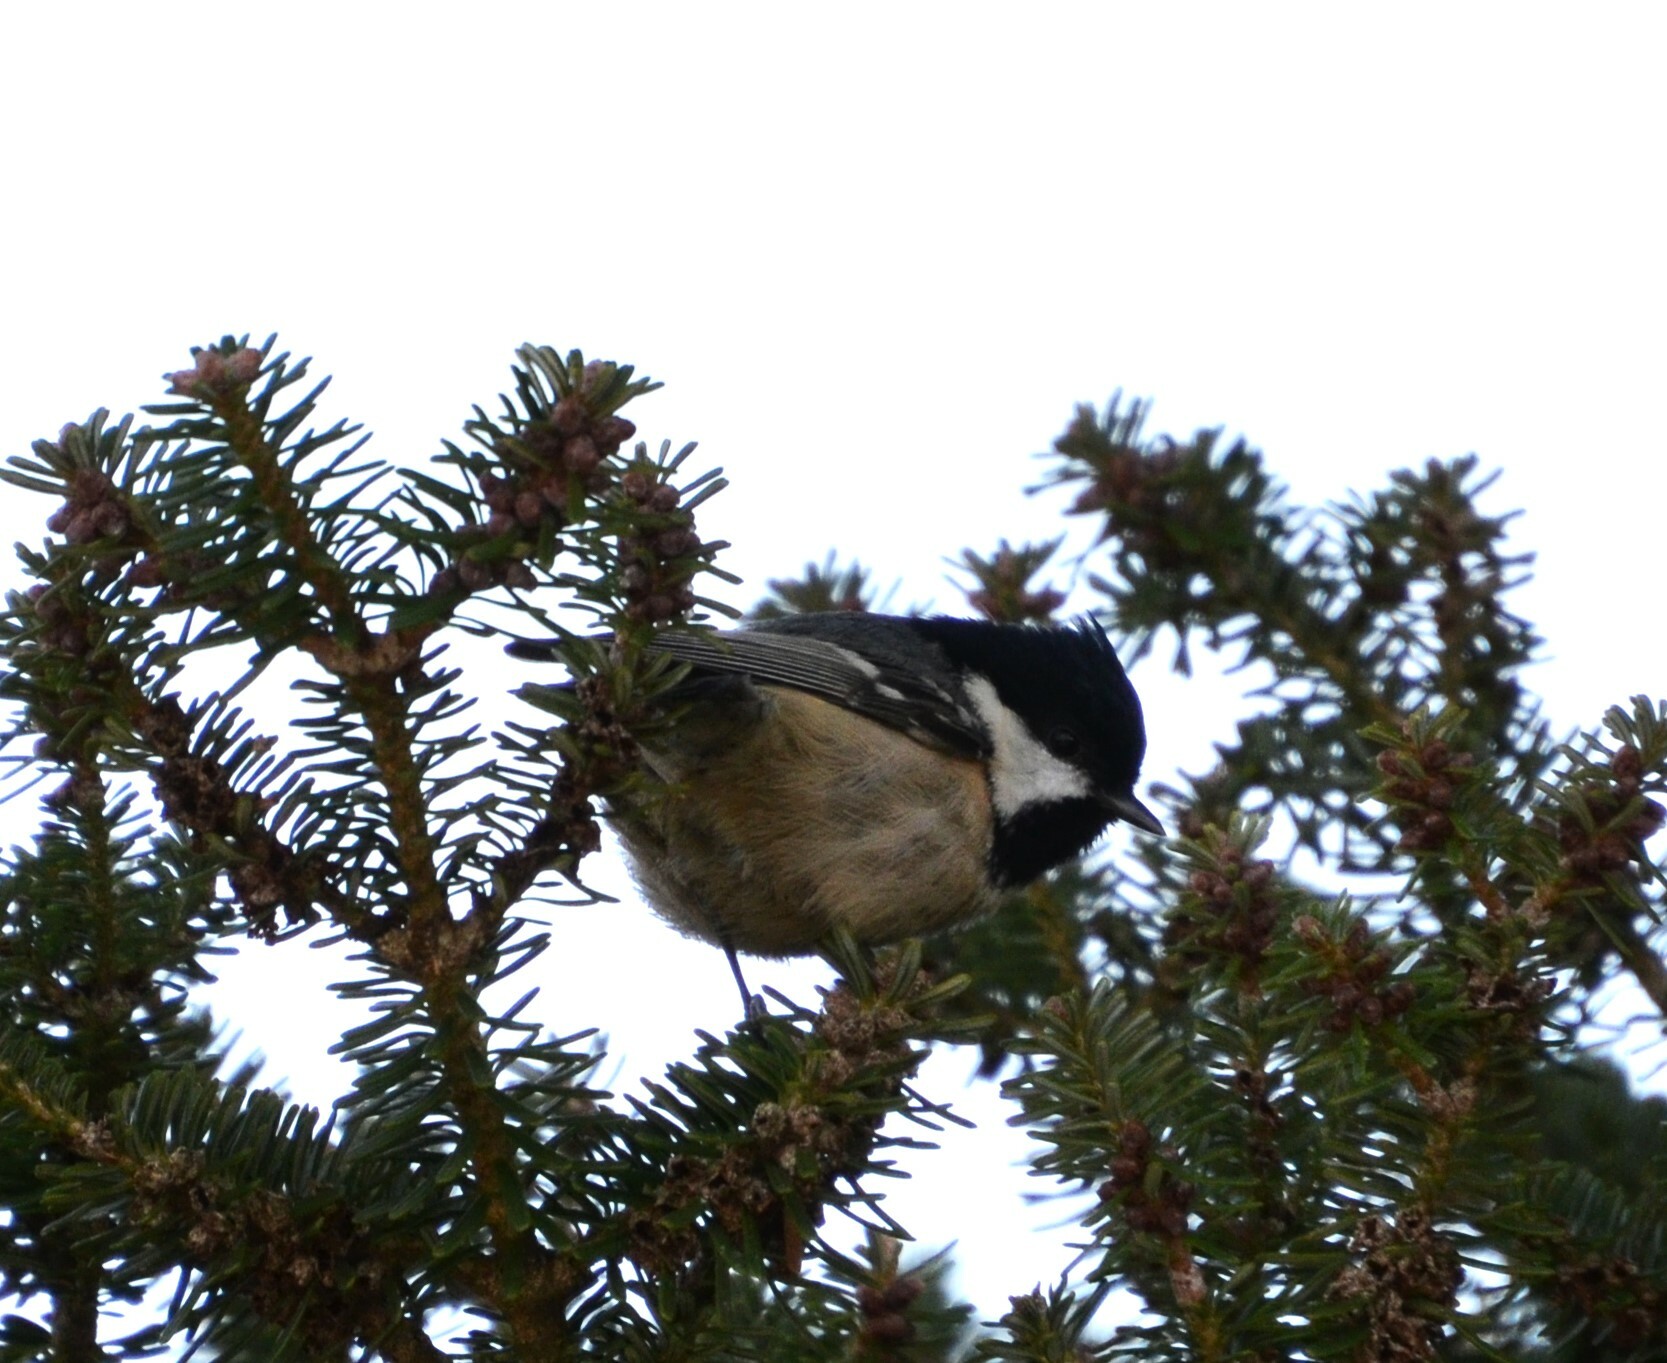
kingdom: Animalia
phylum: Chordata
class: Aves
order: Passeriformes
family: Paridae
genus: Periparus
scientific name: Periparus ater
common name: Coal tit
